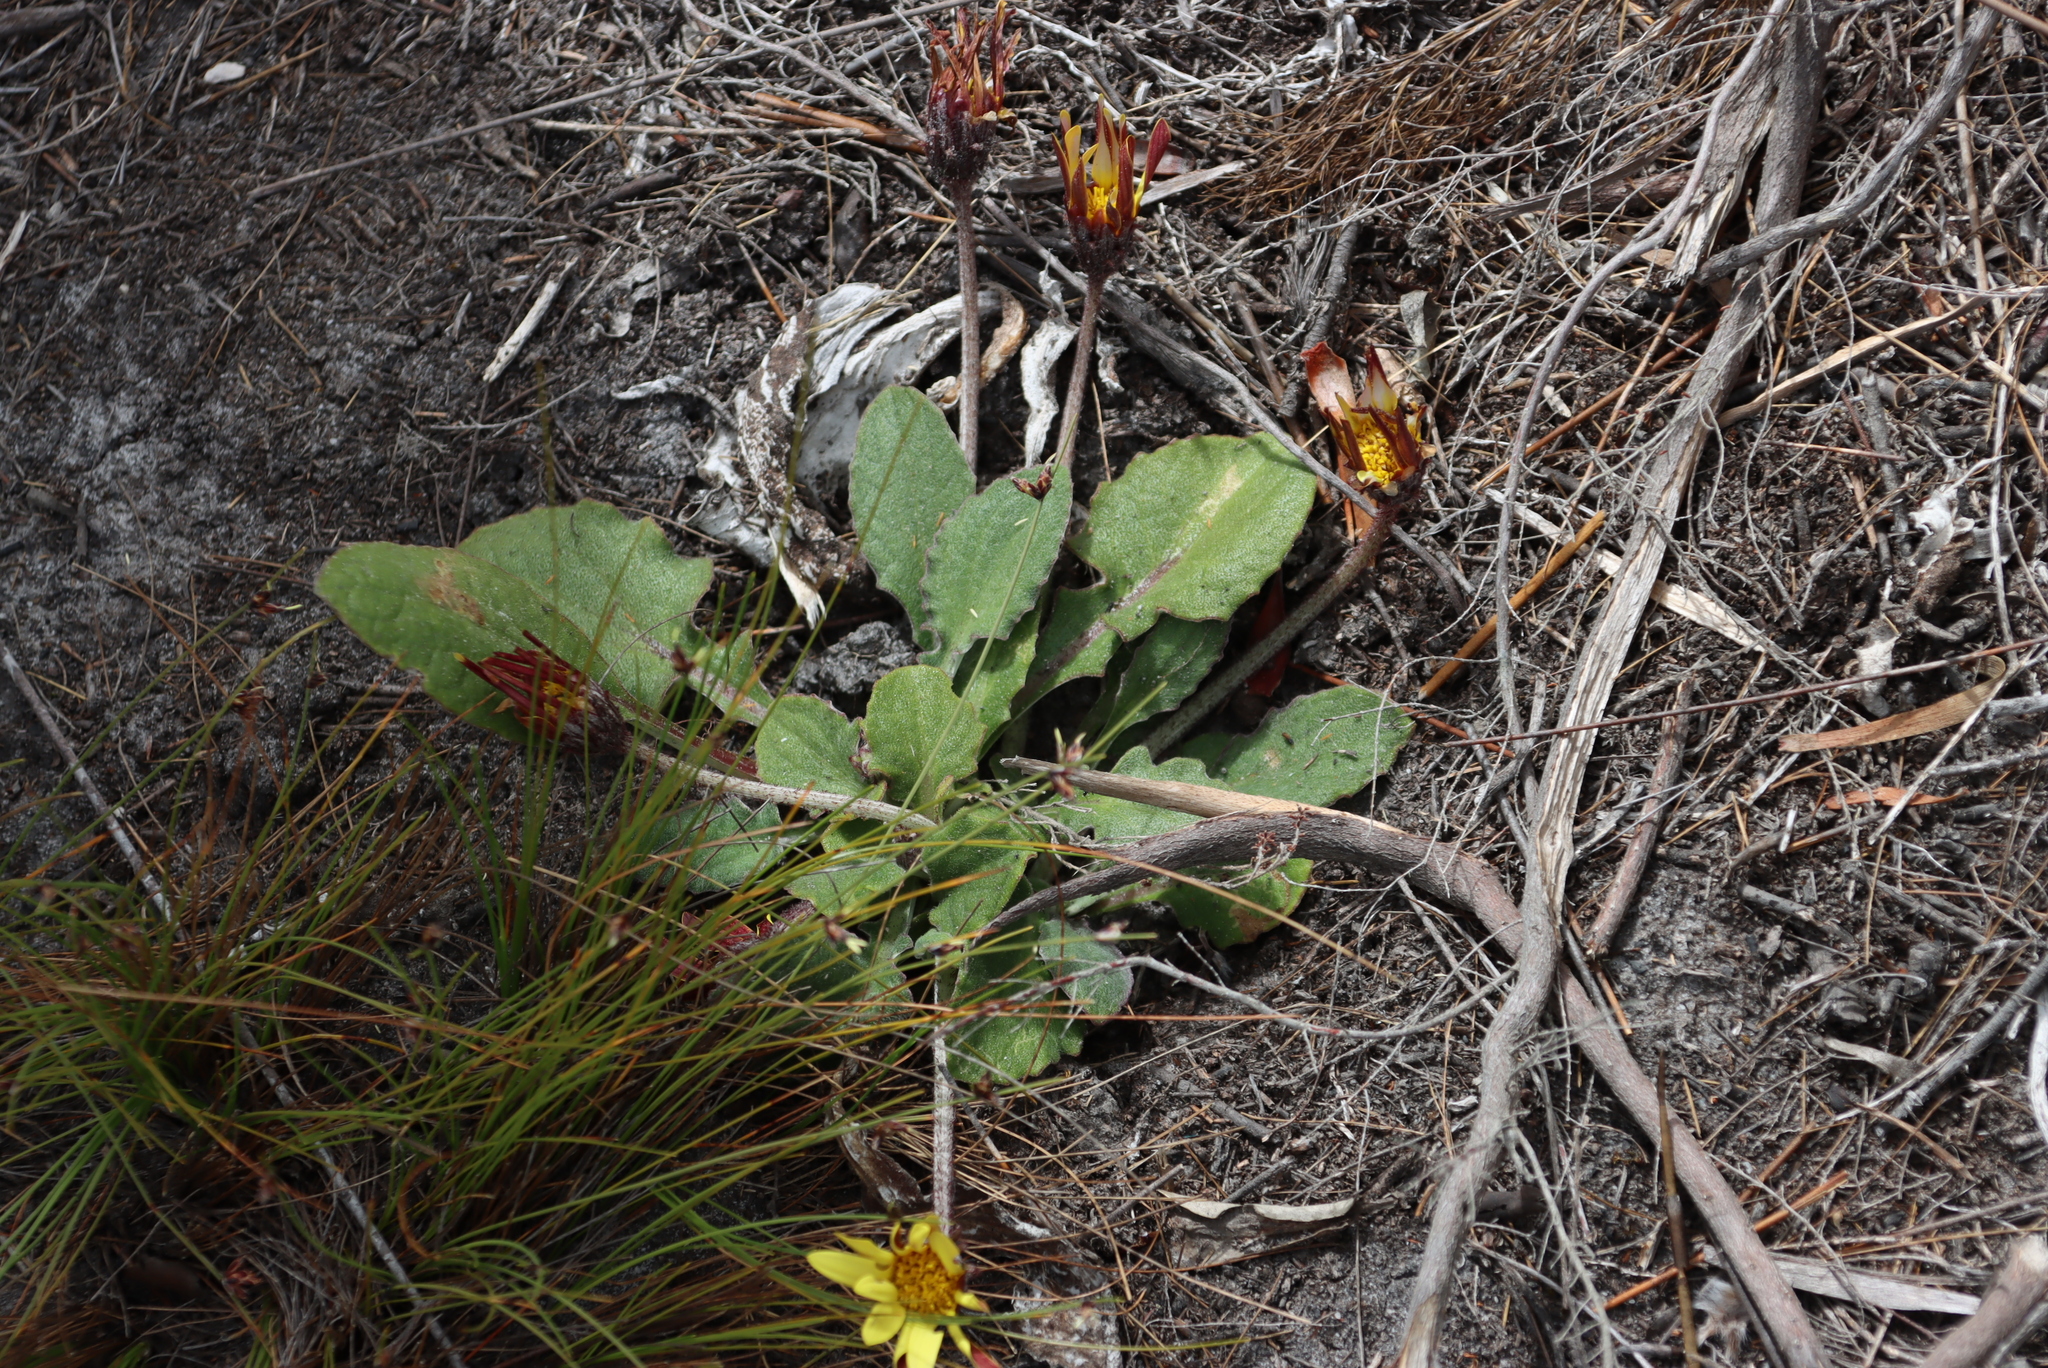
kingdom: Plantae
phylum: Tracheophyta
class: Magnoliopsida
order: Asterales
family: Asteraceae
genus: Haplocarpha
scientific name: Haplocarpha lanata
